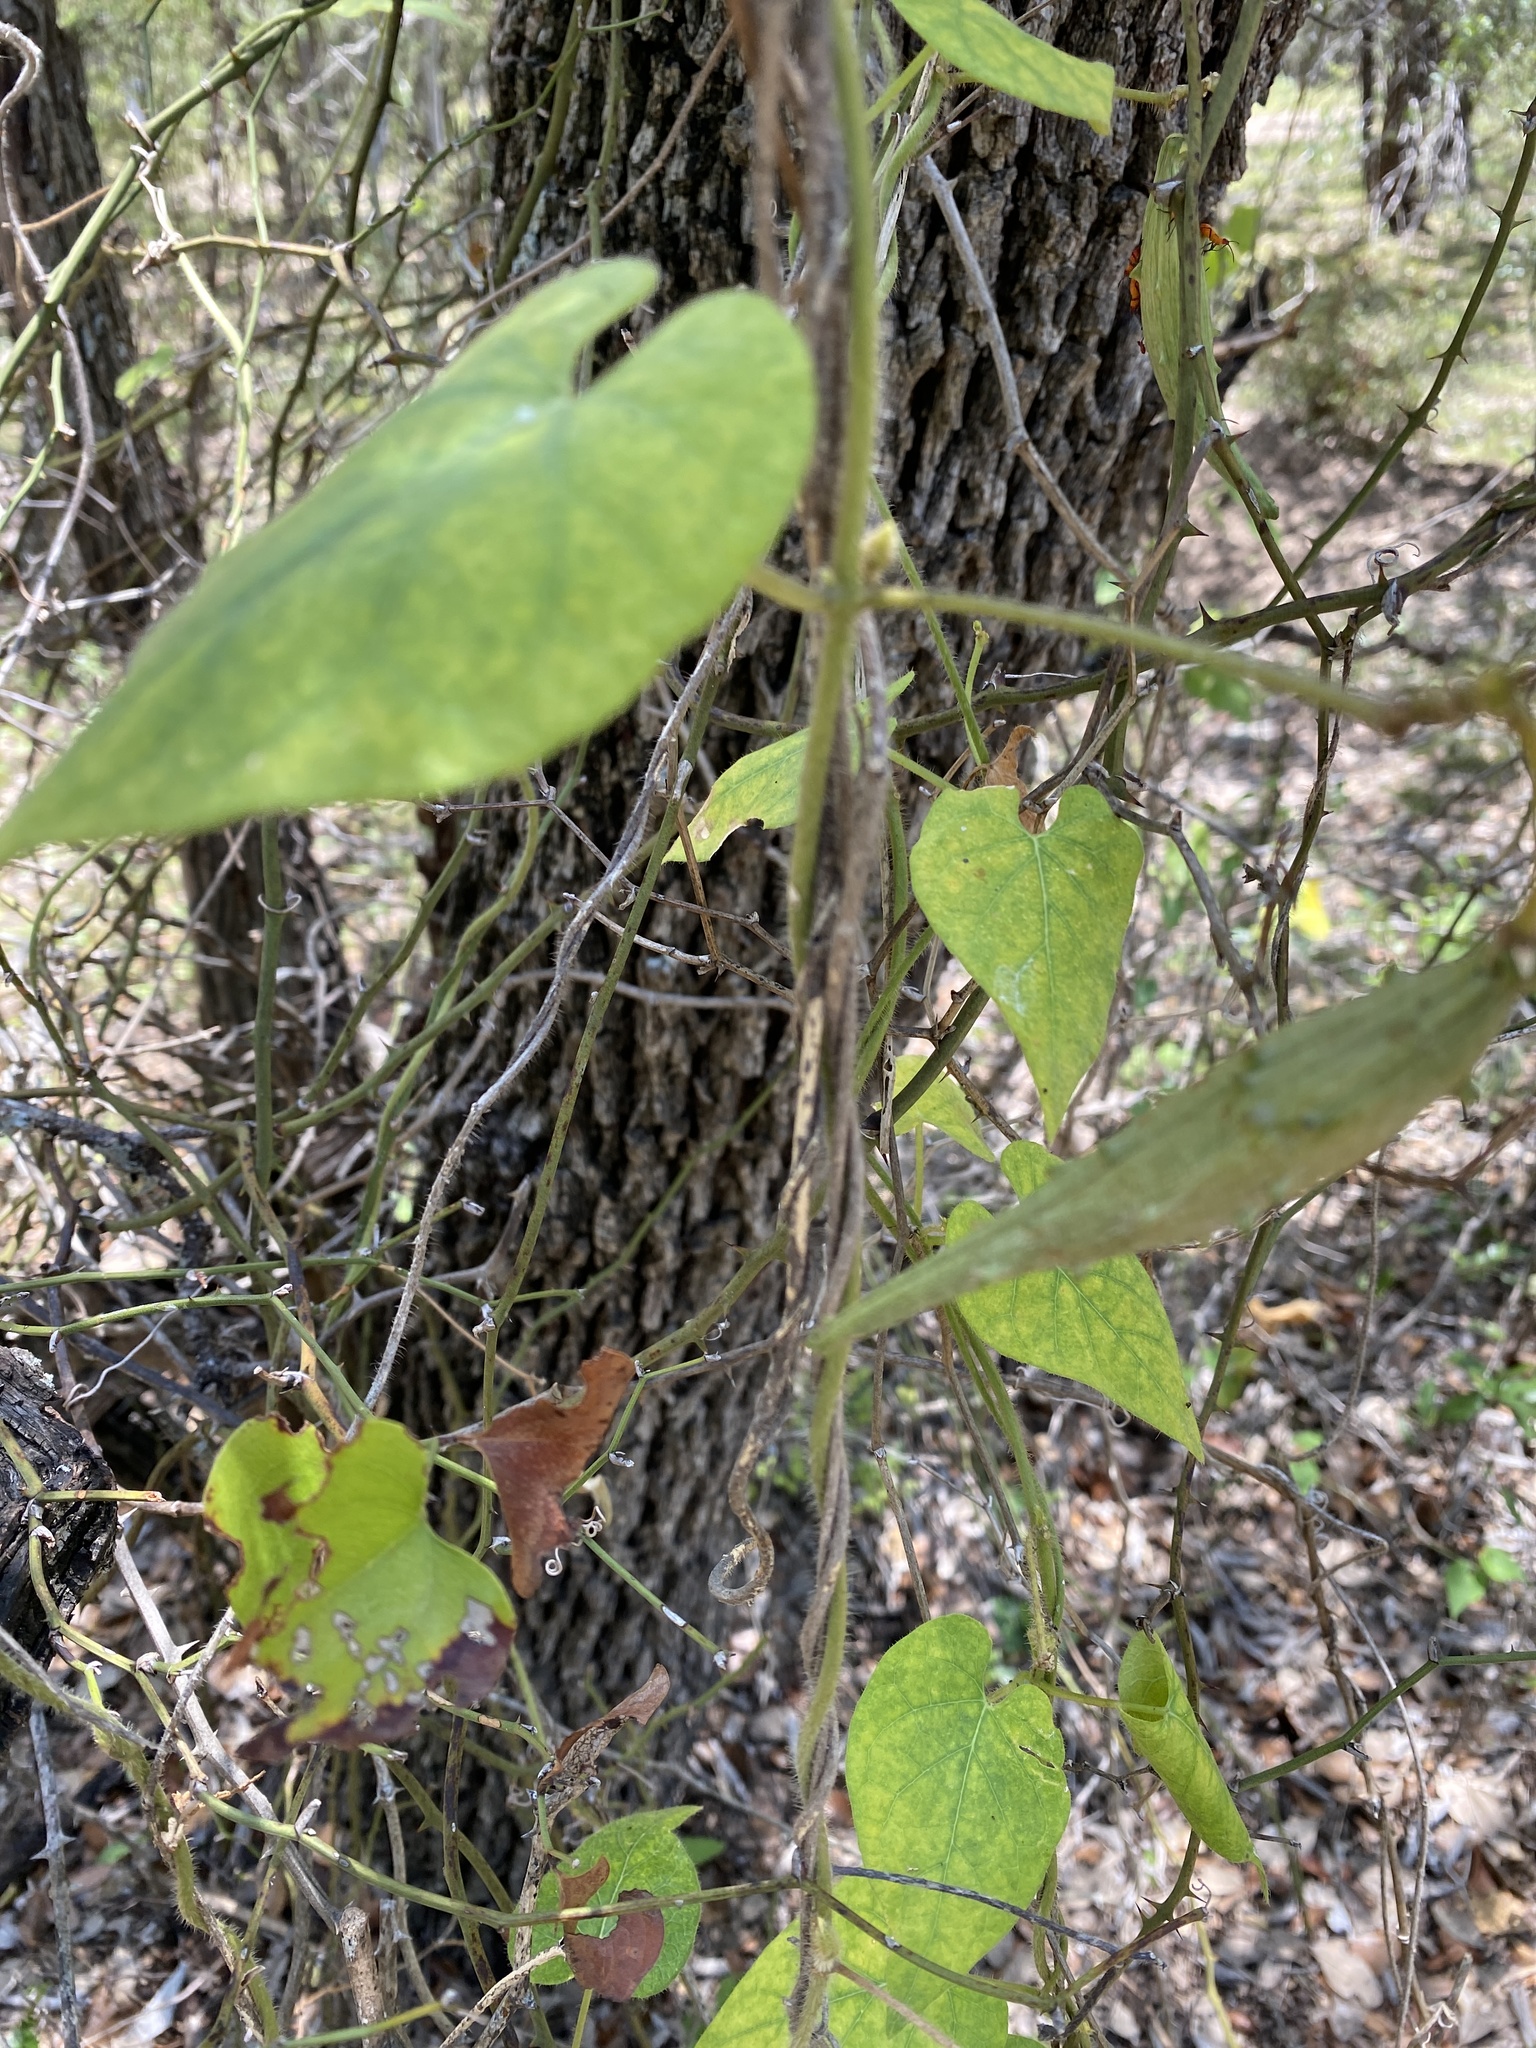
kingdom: Plantae
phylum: Tracheophyta
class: Magnoliopsida
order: Gentianales
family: Apocynaceae
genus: Dictyanthus
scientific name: Dictyanthus reticulatus
